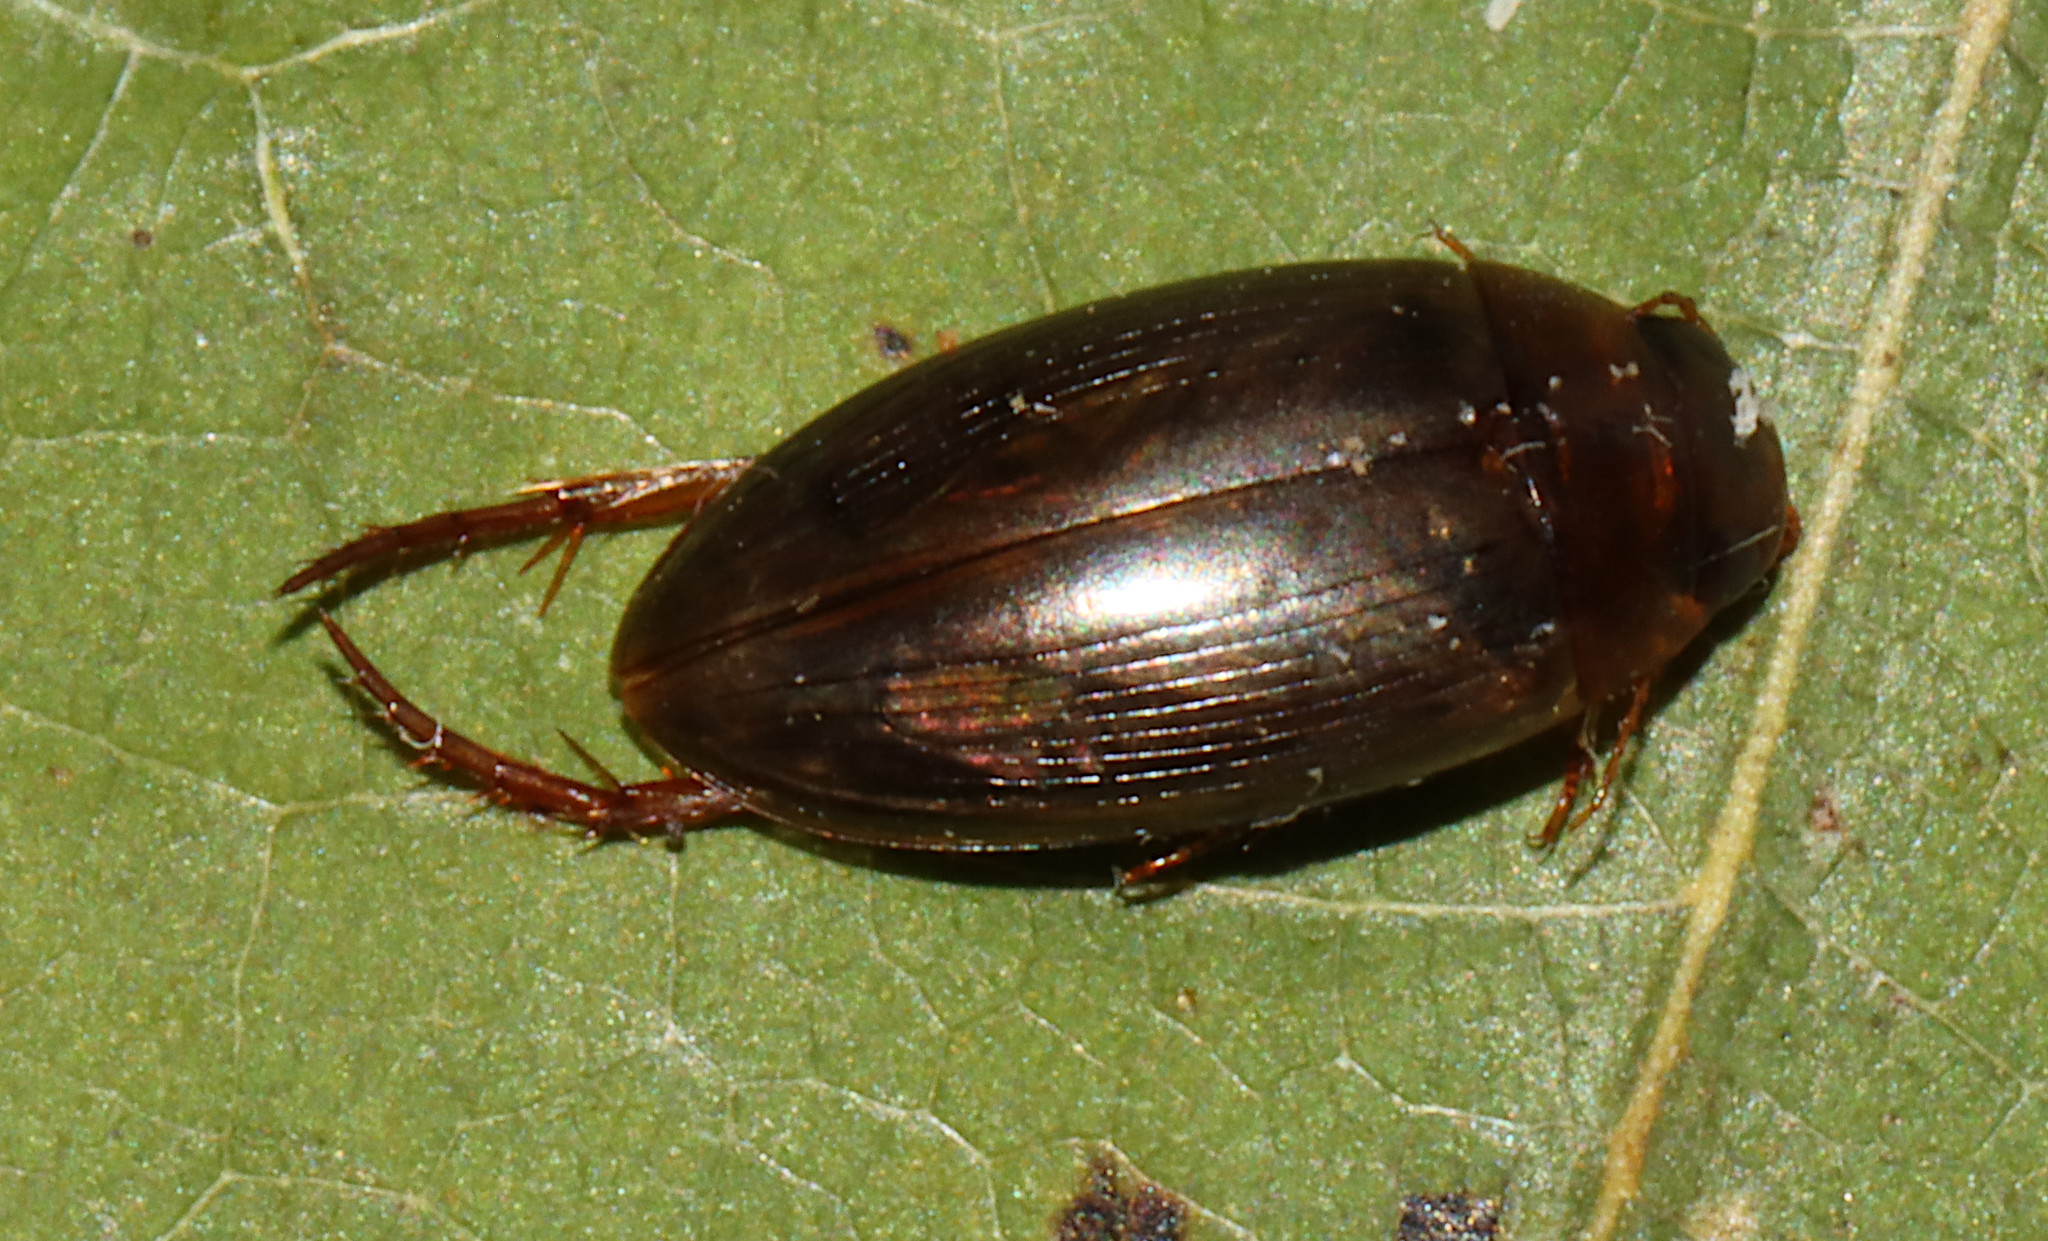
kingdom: Animalia
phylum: Arthropoda
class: Insecta
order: Coleoptera
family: Dytiscidae
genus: Copelatus
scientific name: Copelatus chevrolati
